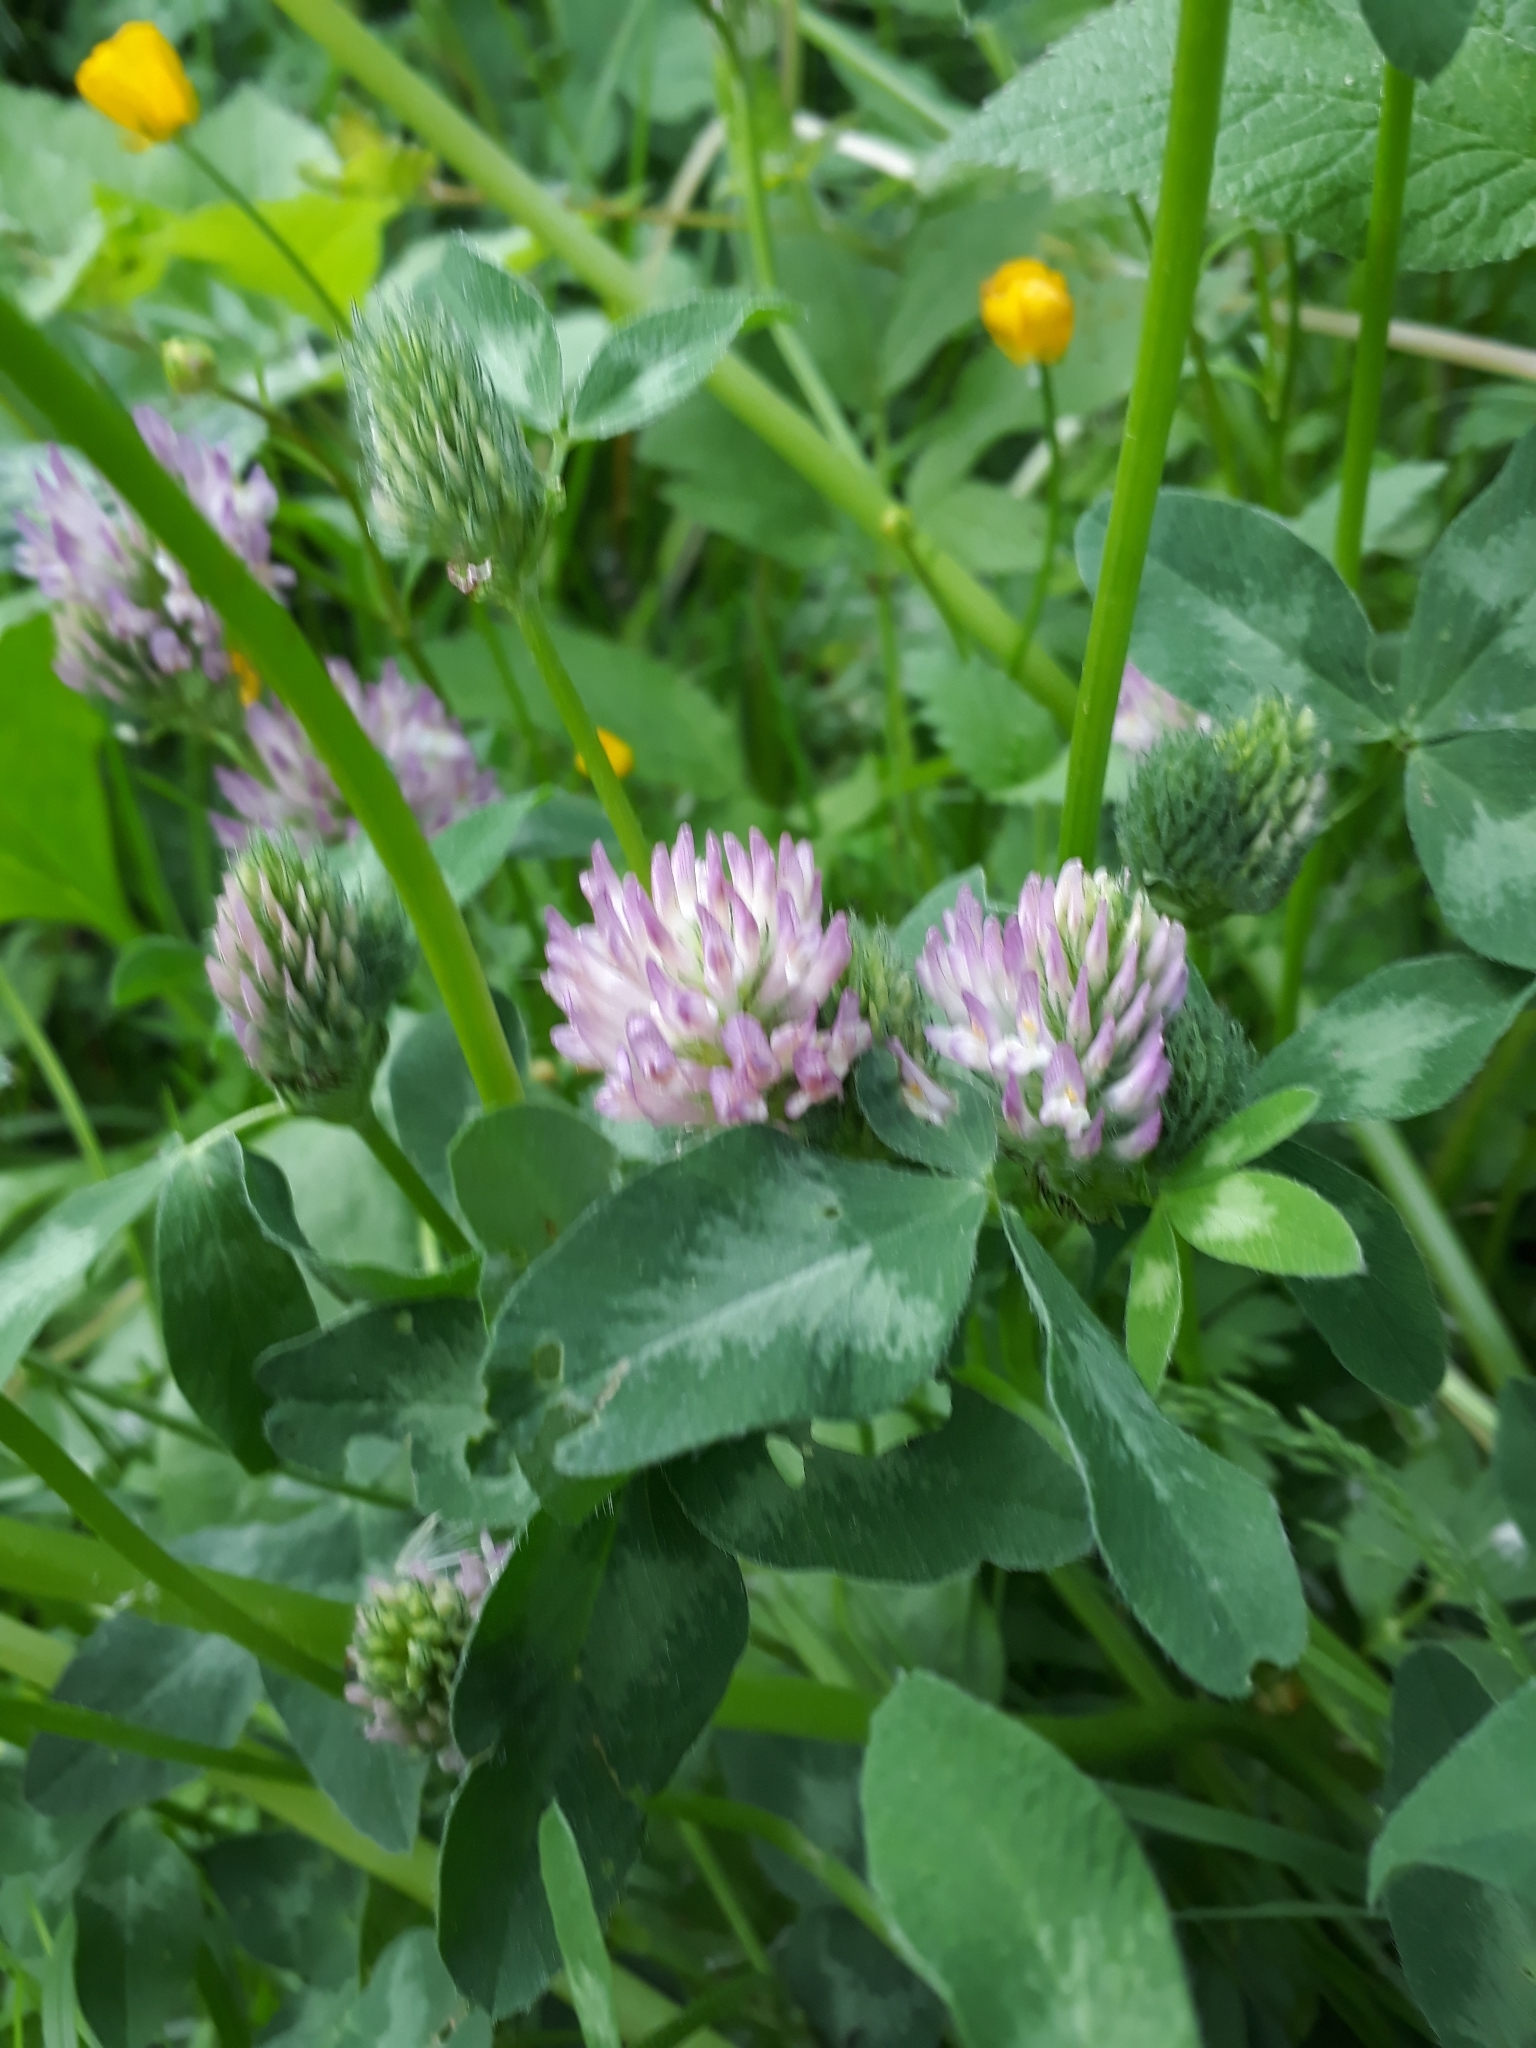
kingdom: Plantae
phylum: Tracheophyta
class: Magnoliopsida
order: Fabales
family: Fabaceae
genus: Trifolium
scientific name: Trifolium pratense
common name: Red clover
